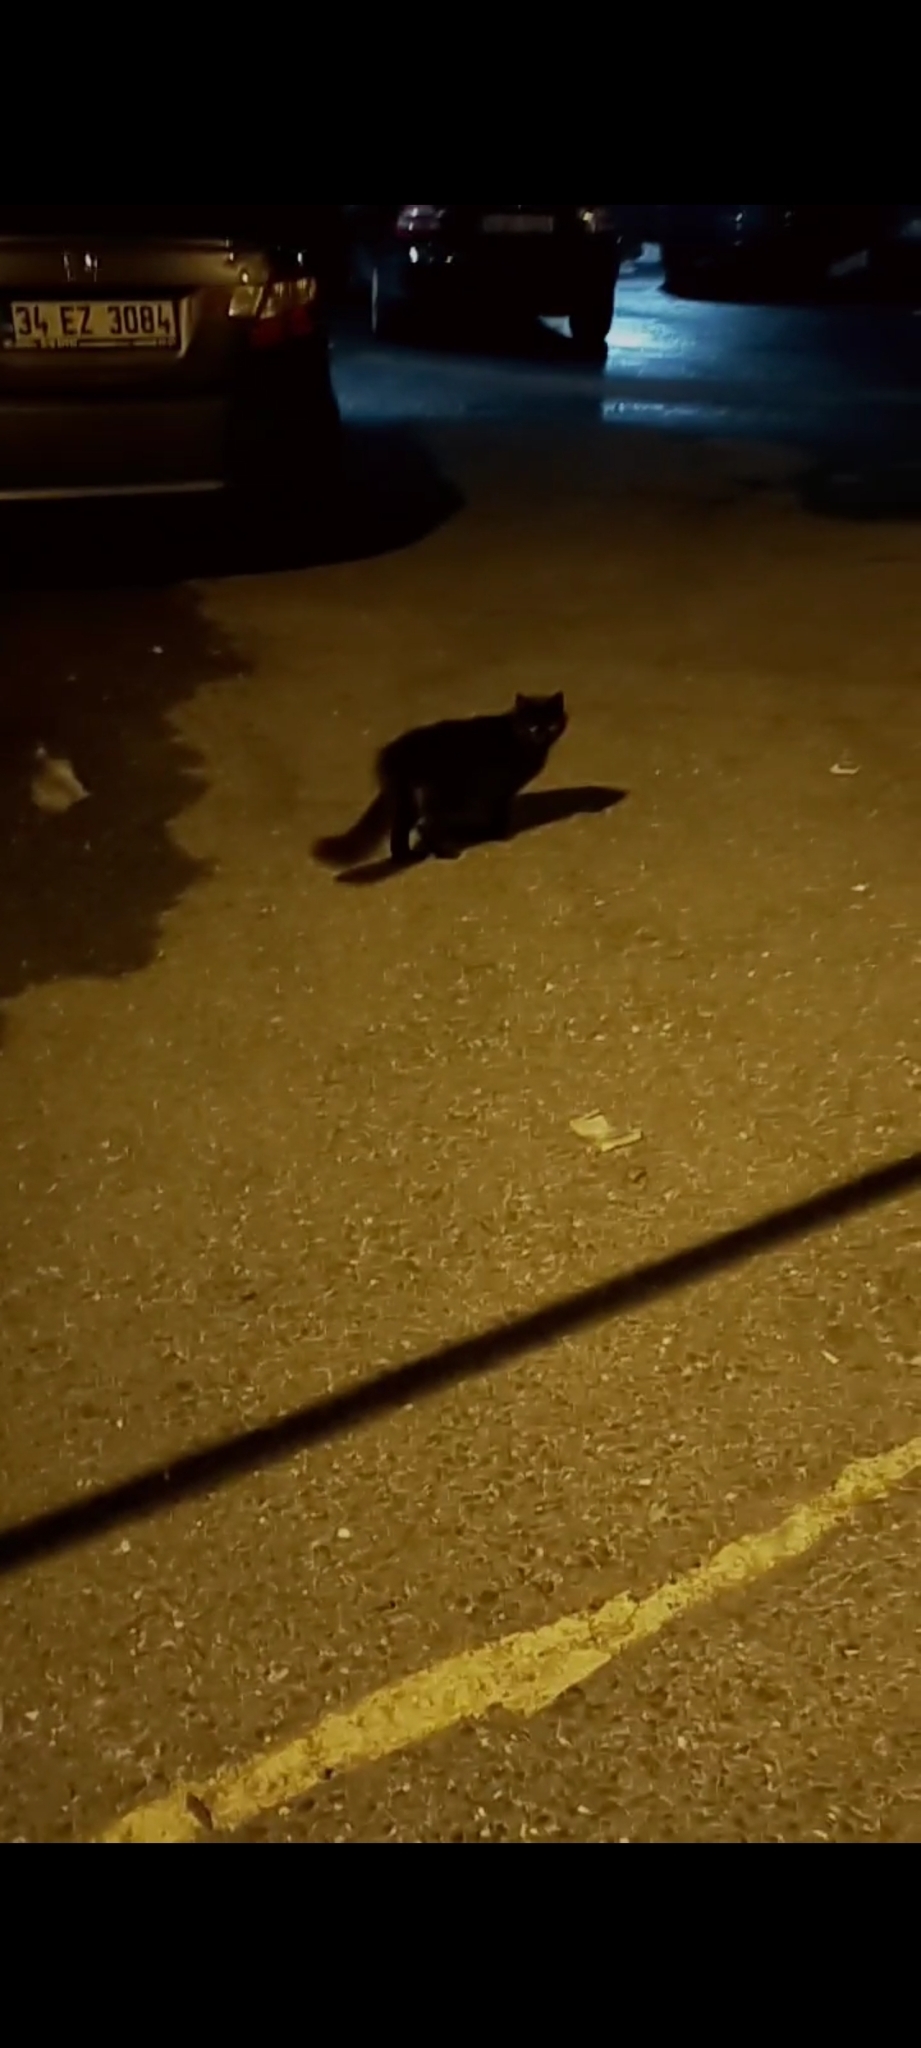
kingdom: Animalia
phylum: Chordata
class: Mammalia
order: Carnivora
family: Felidae
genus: Felis
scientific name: Felis catus
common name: Domestic cat
